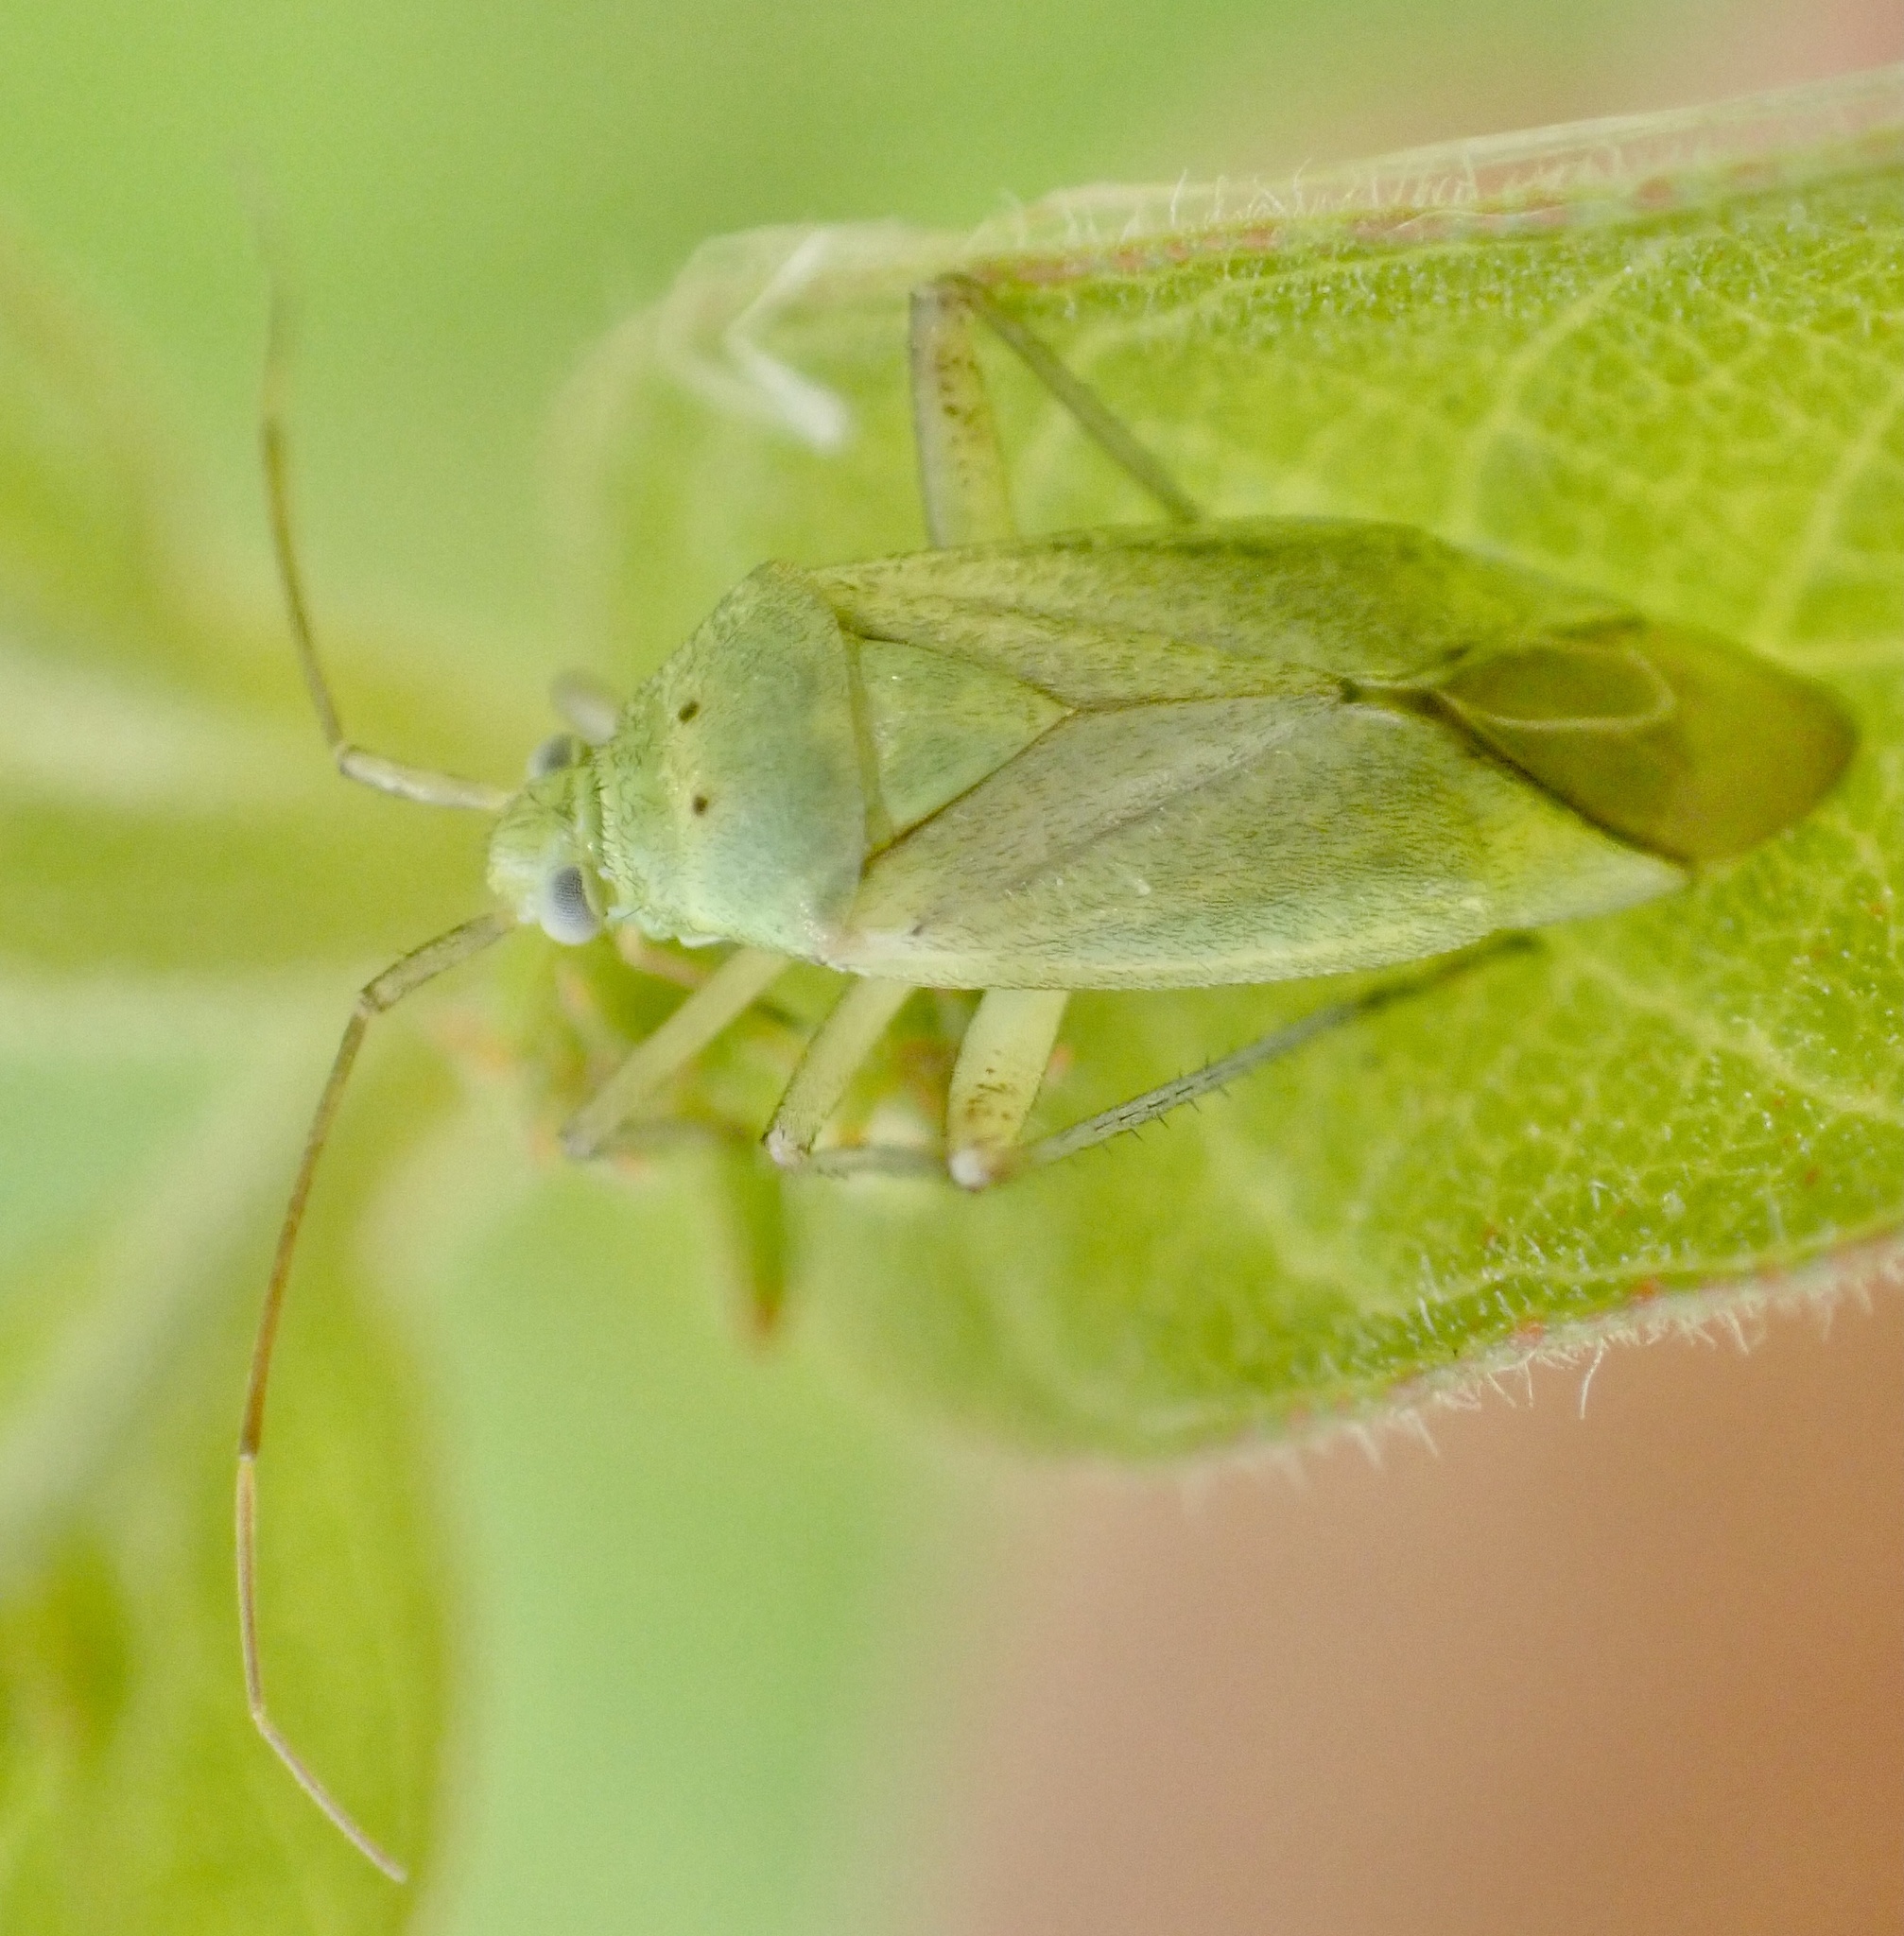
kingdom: Animalia
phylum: Arthropoda
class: Insecta
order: Hemiptera
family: Miridae
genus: Closterotomus
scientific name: Closterotomus norvegicus
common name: Plant bug
